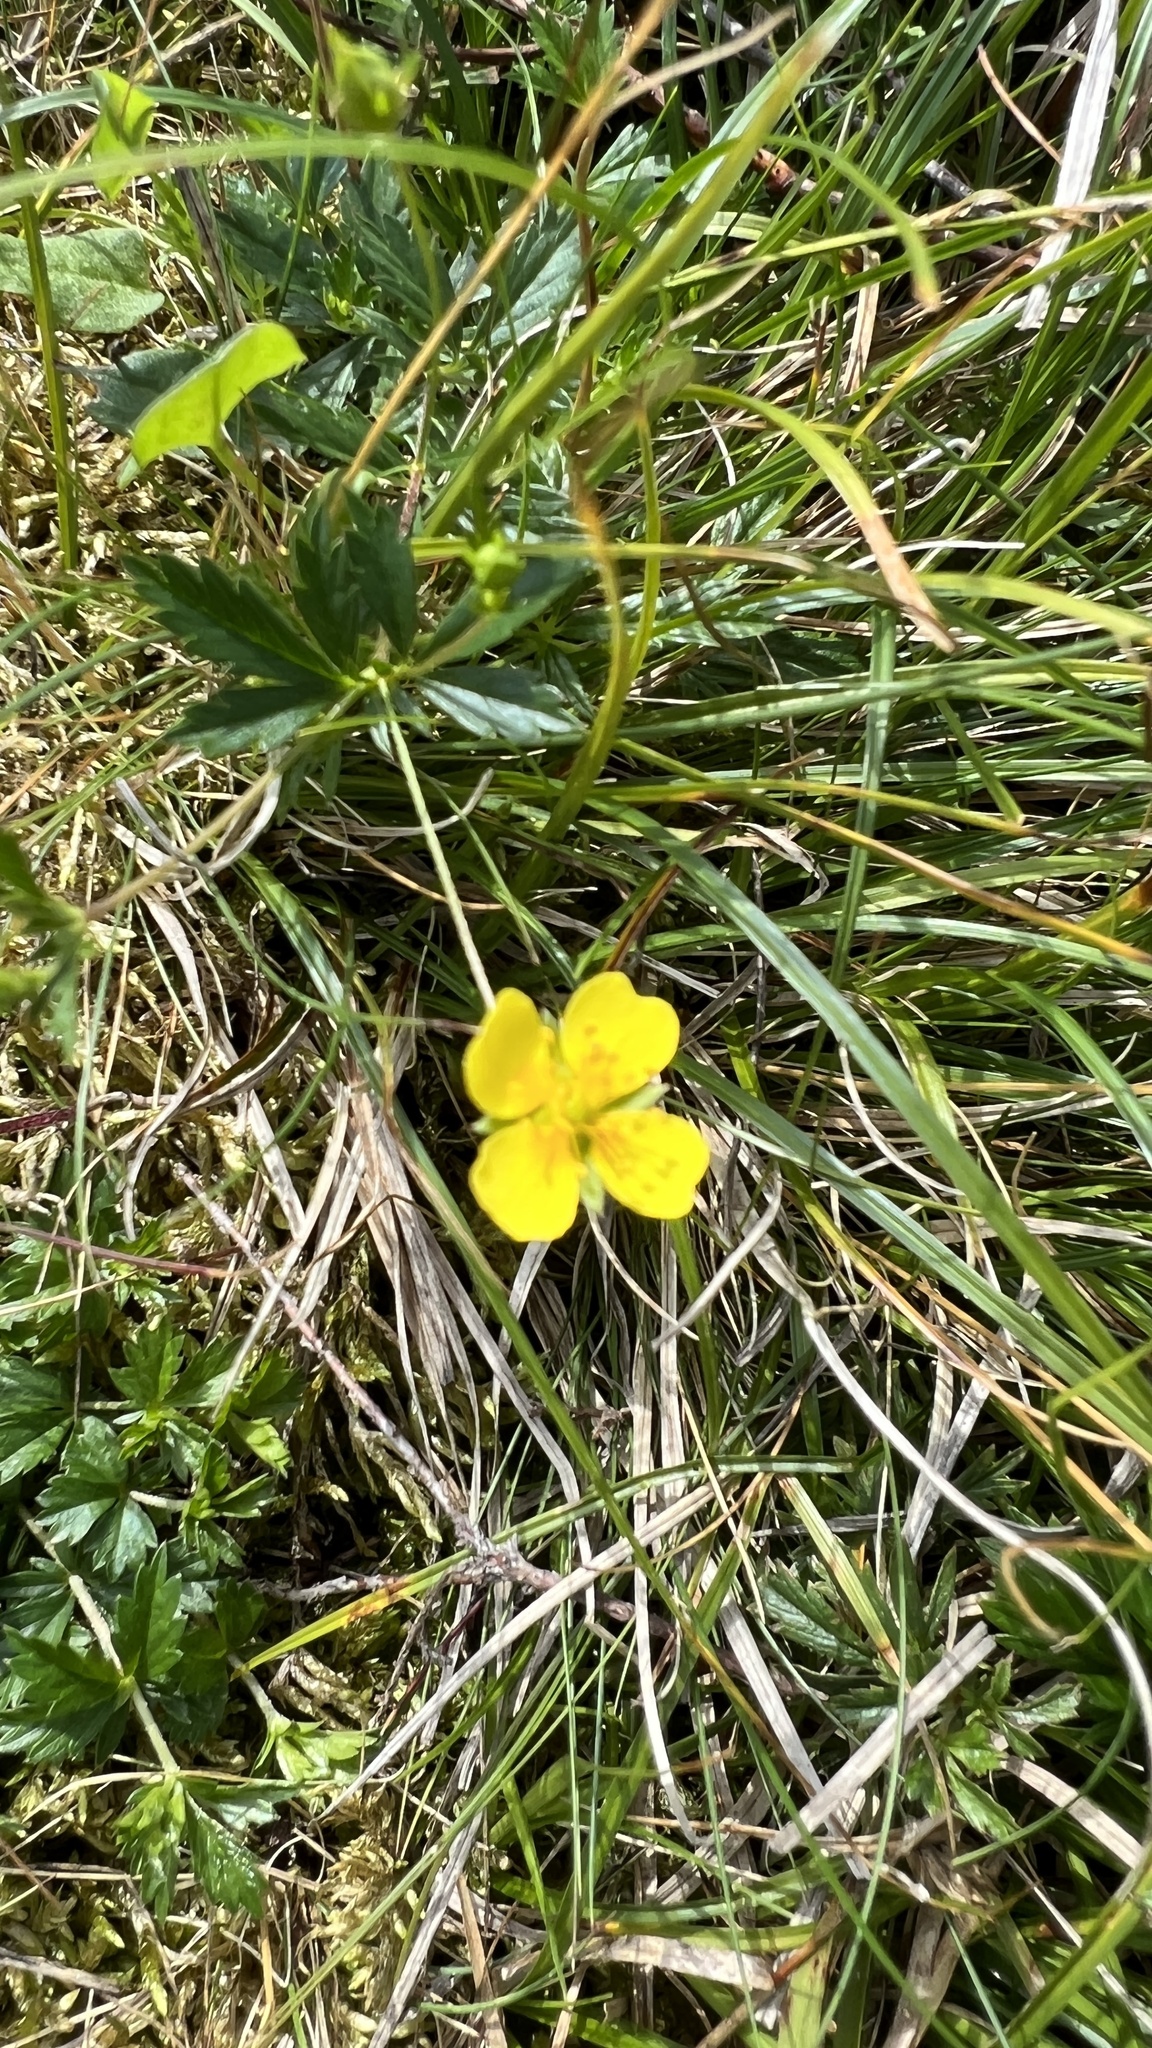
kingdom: Plantae
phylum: Tracheophyta
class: Magnoliopsida
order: Rosales
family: Rosaceae
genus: Potentilla
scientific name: Potentilla erecta
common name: Tormentil
